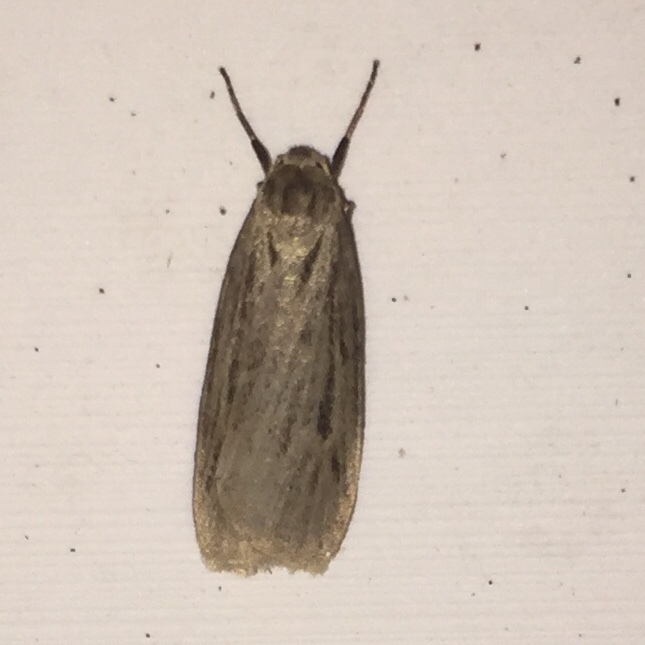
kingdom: Animalia
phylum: Arthropoda
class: Insecta
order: Lepidoptera
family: Erebidae
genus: Crambidia
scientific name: Crambidia pallida
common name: Pale lichen moth
